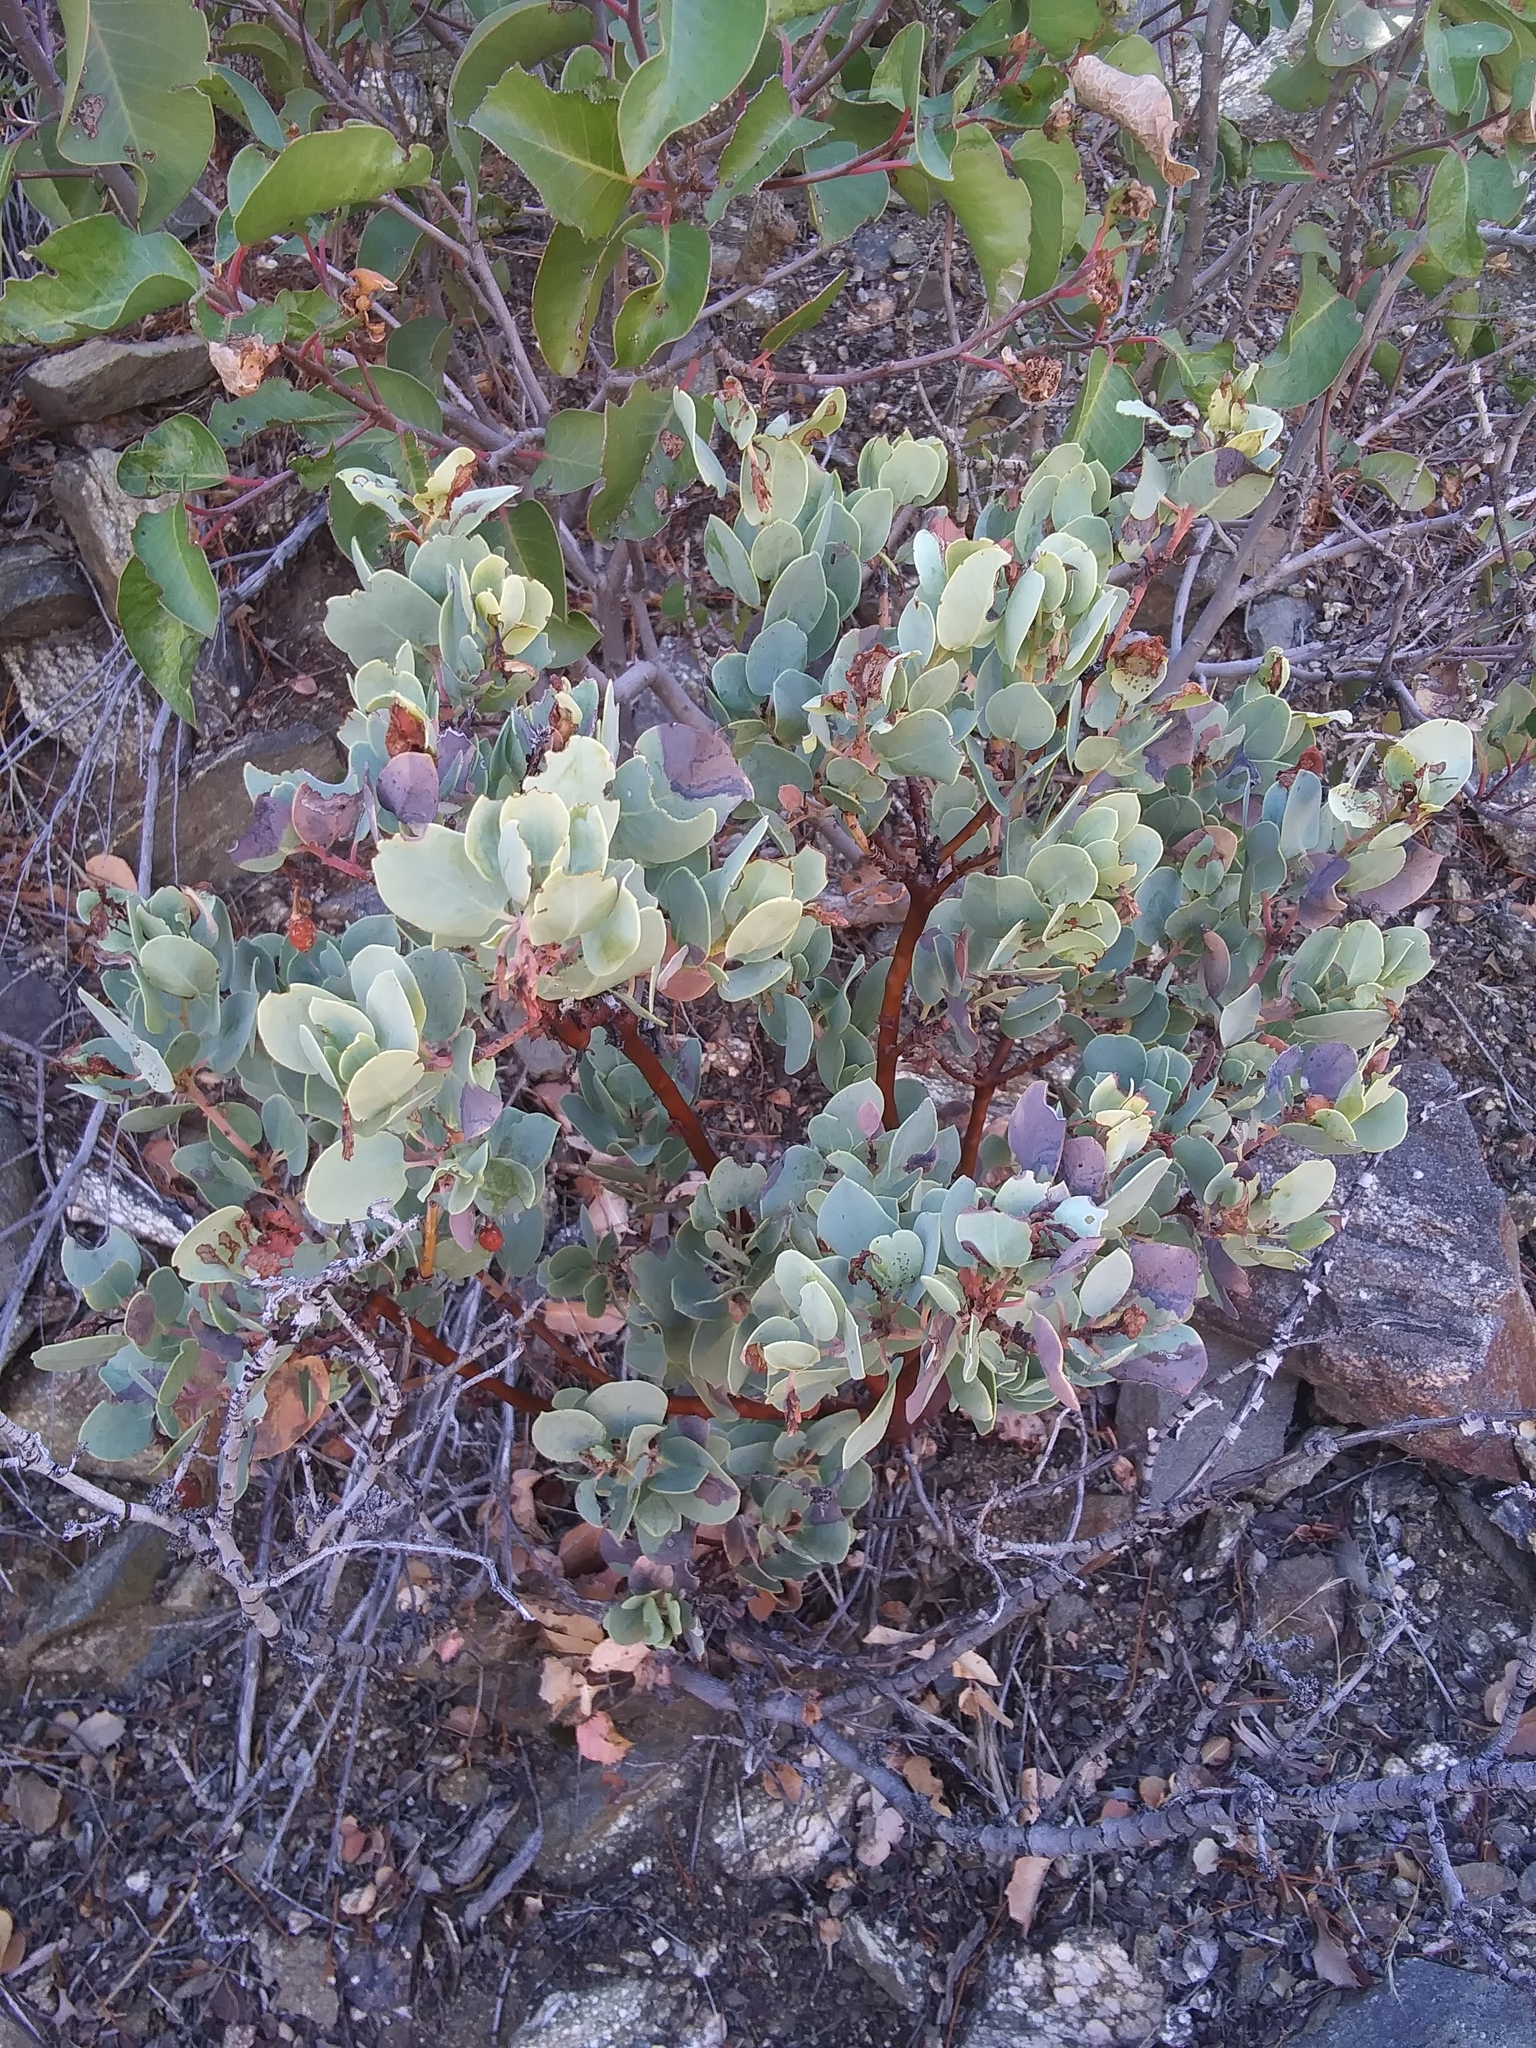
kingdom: Plantae
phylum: Tracheophyta
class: Magnoliopsida
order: Ericales
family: Ericaceae
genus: Arctostaphylos
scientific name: Arctostaphylos glauca
